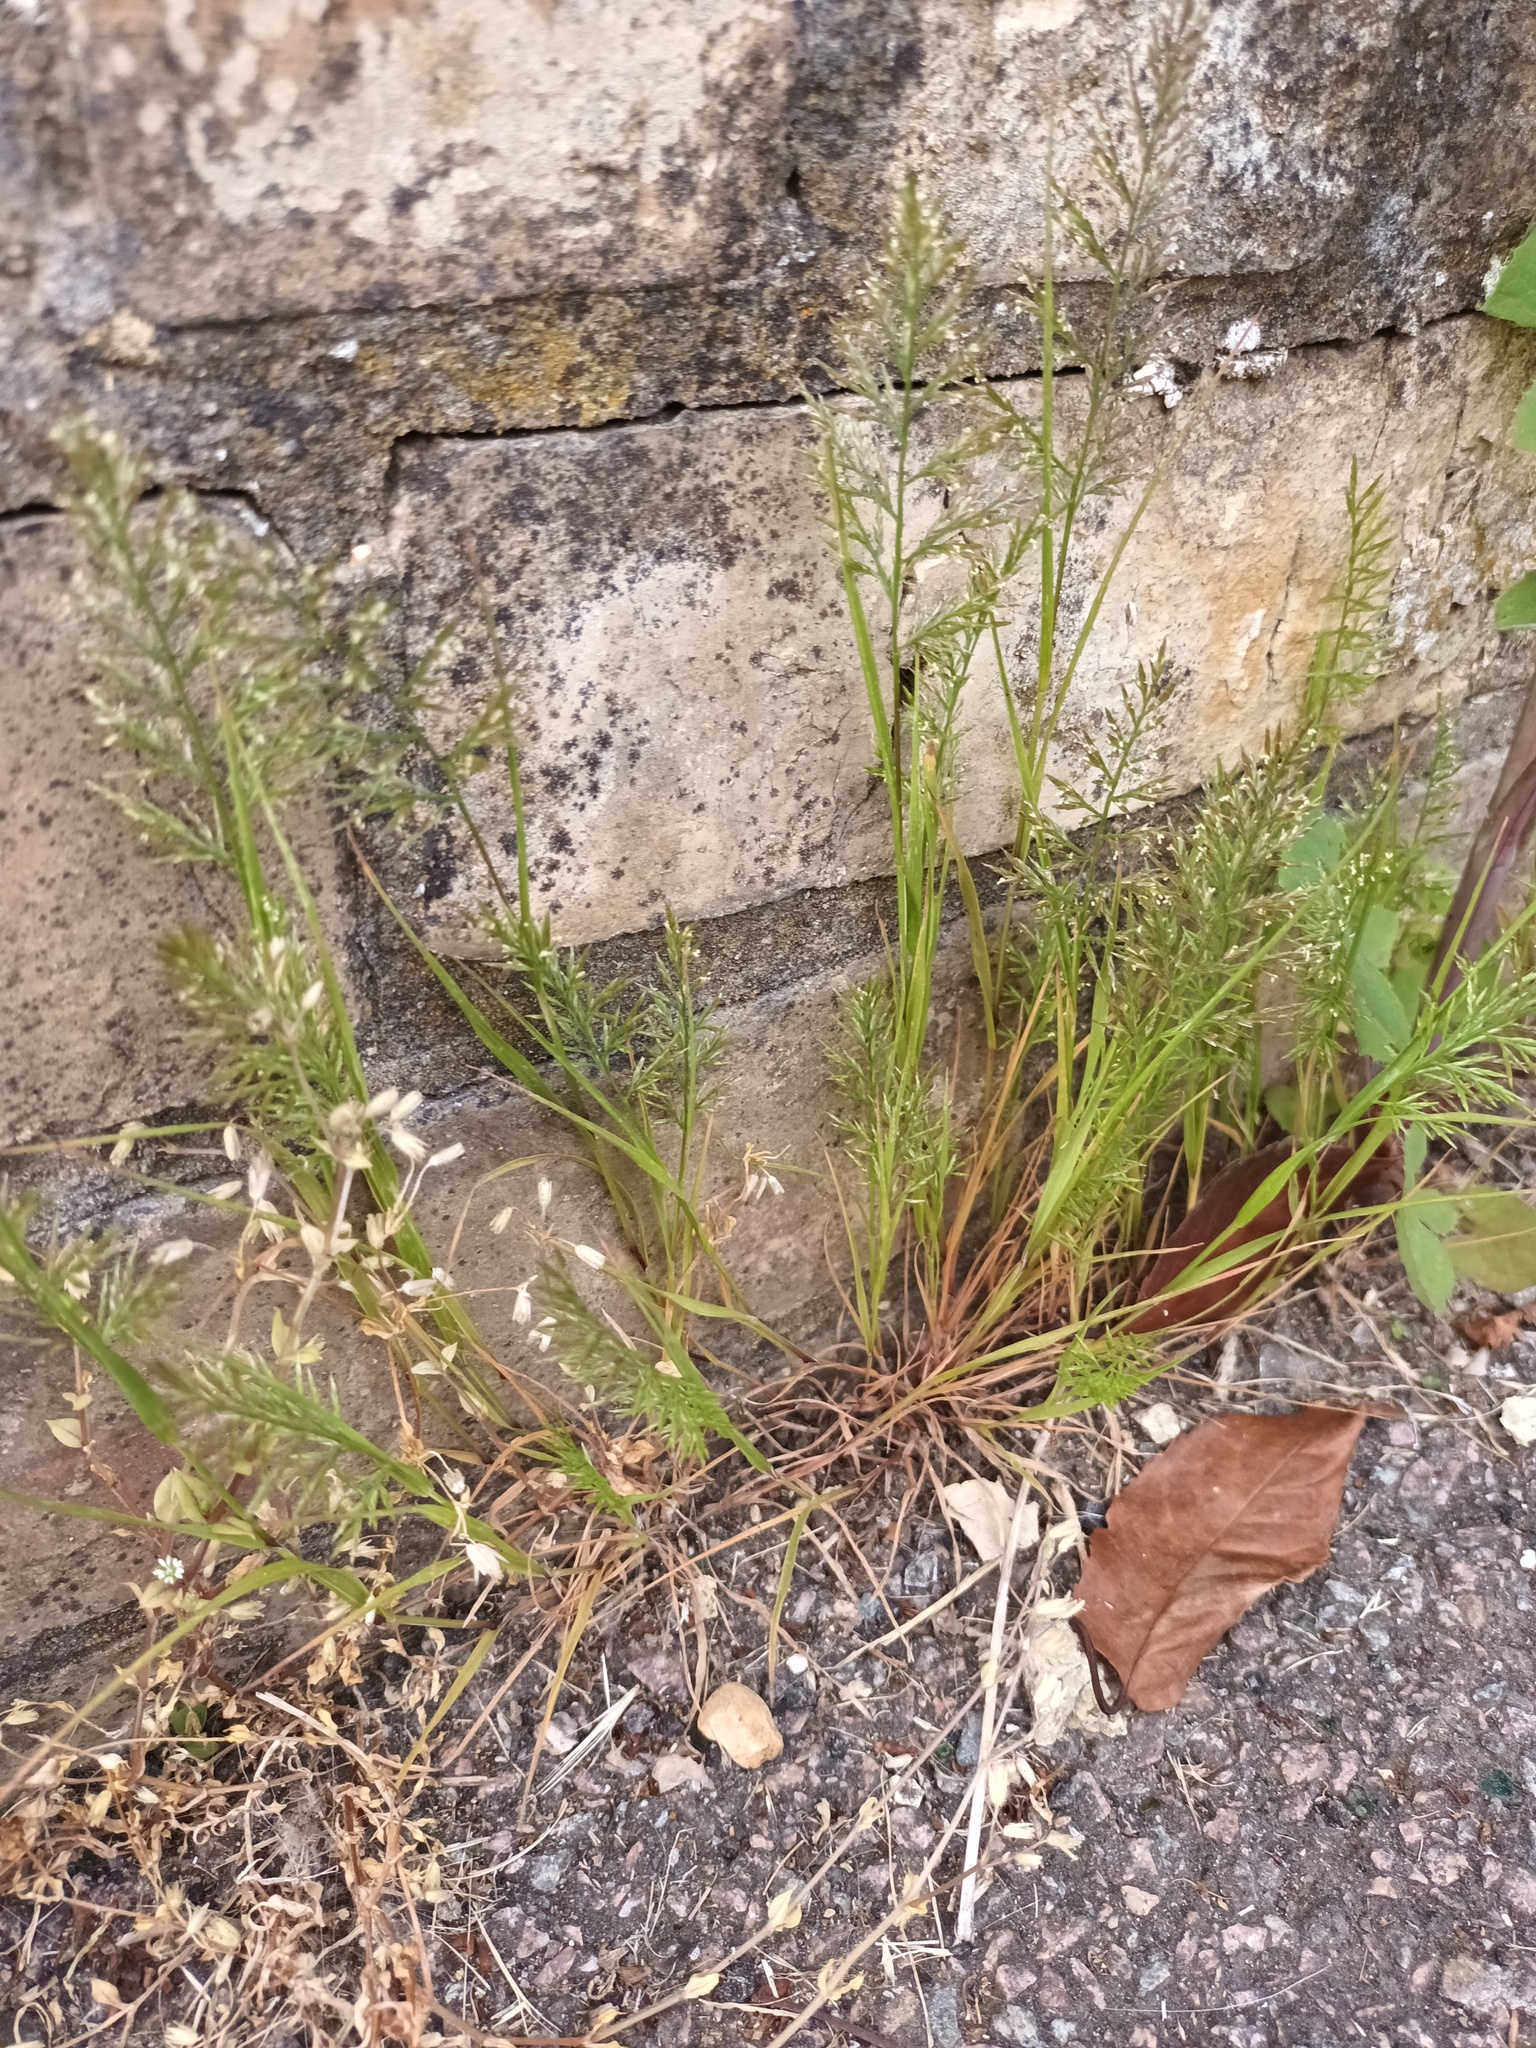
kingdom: Plantae
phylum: Tracheophyta
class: Liliopsida
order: Poales
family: Poaceae
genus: Catapodium
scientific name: Catapodium rigidum
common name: Fern-grass
